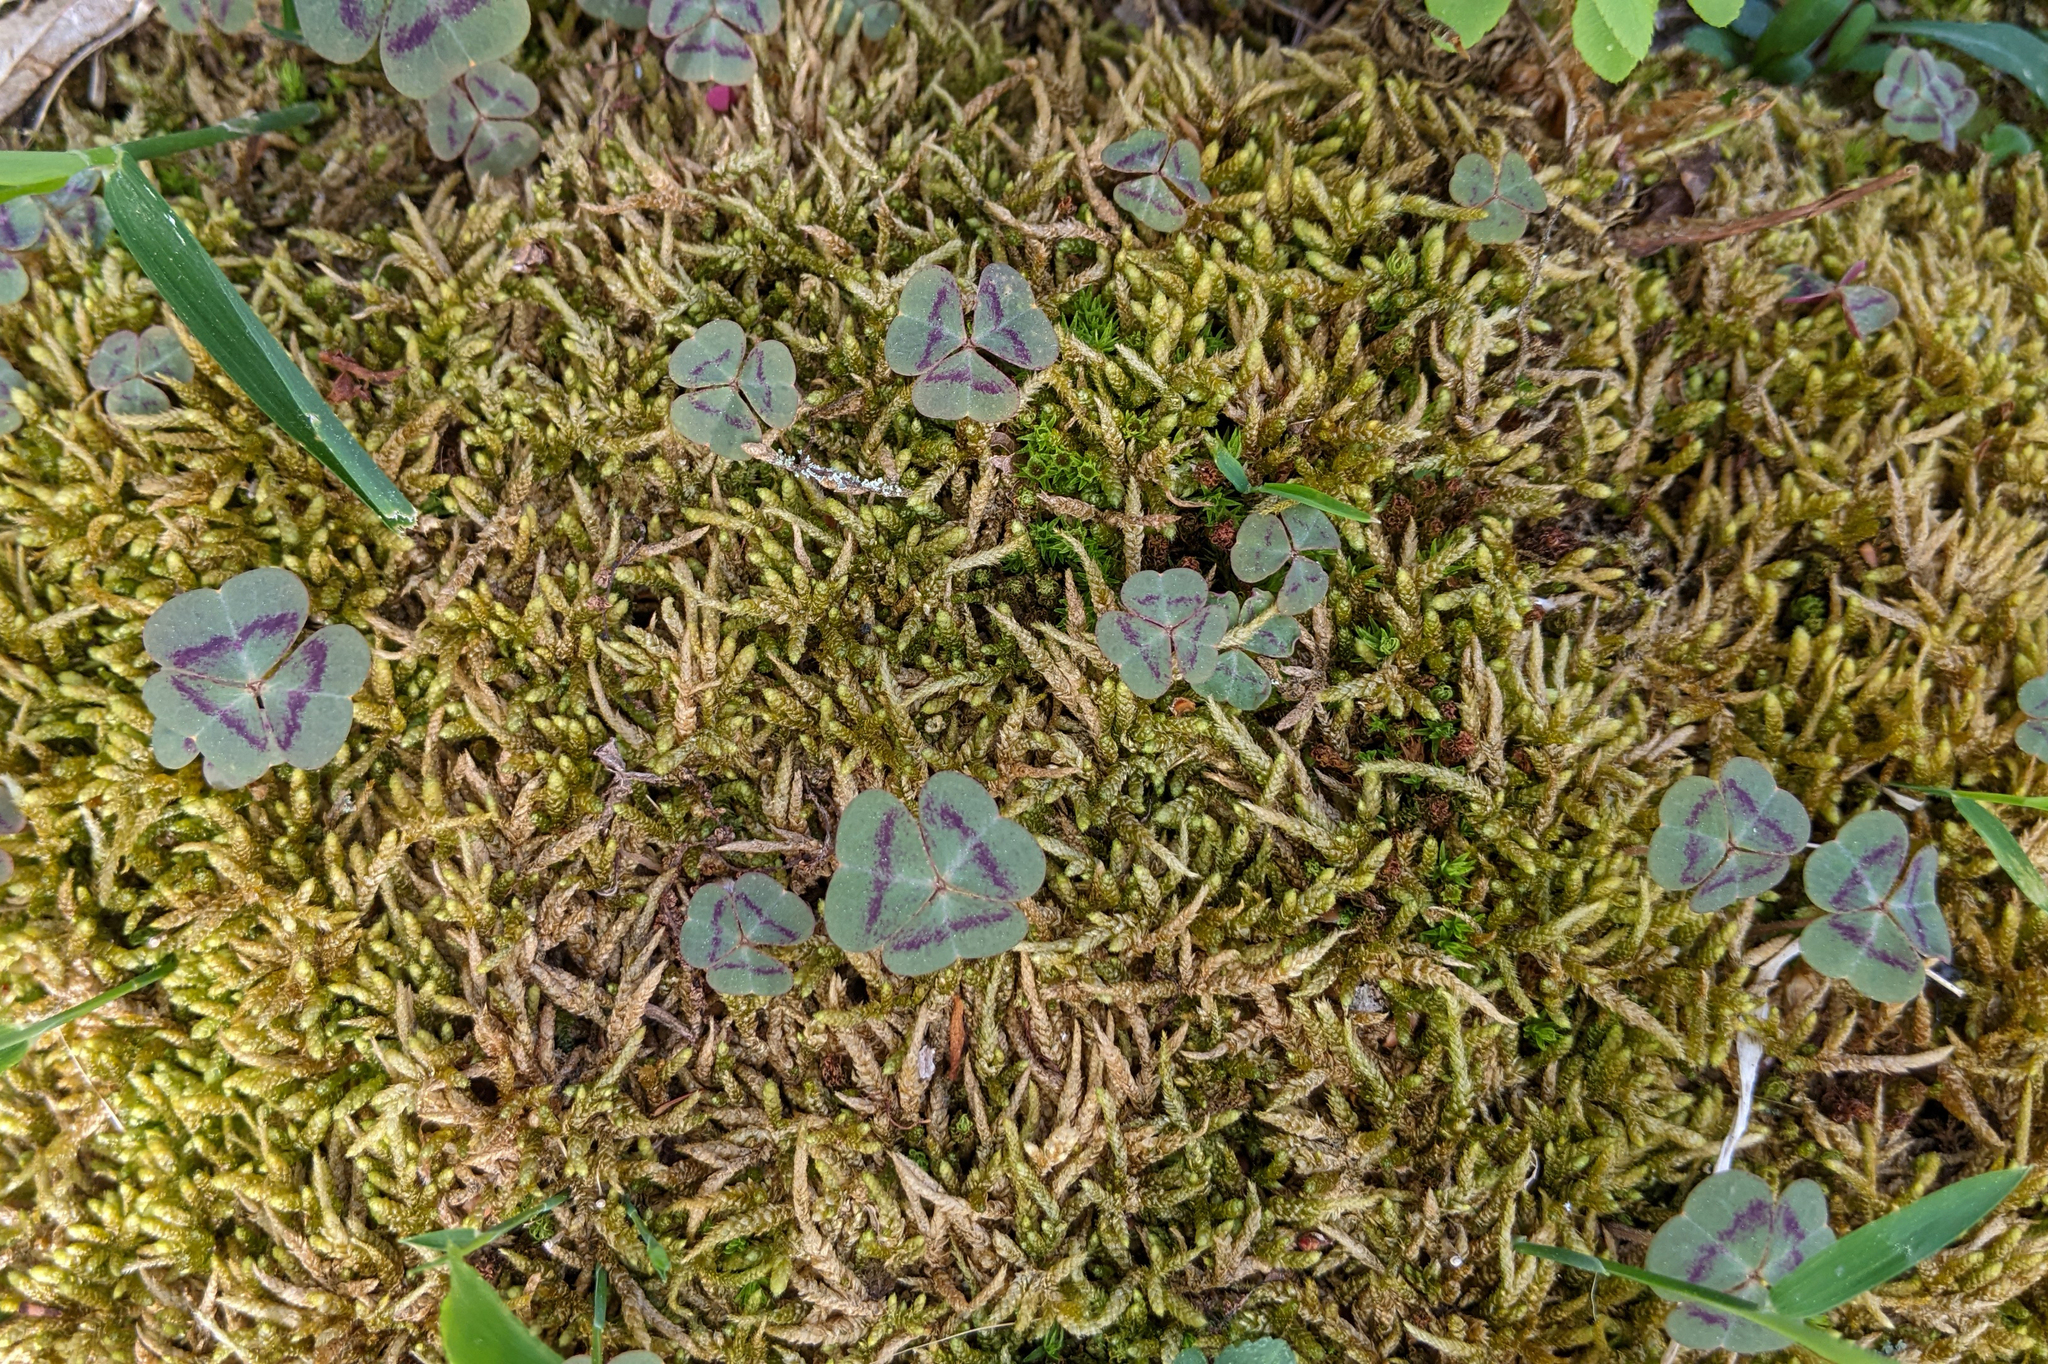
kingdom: Plantae
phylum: Tracheophyta
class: Magnoliopsida
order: Oxalidales
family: Oxalidaceae
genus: Oxalis
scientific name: Oxalis violacea
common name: Violet wood-sorrel
